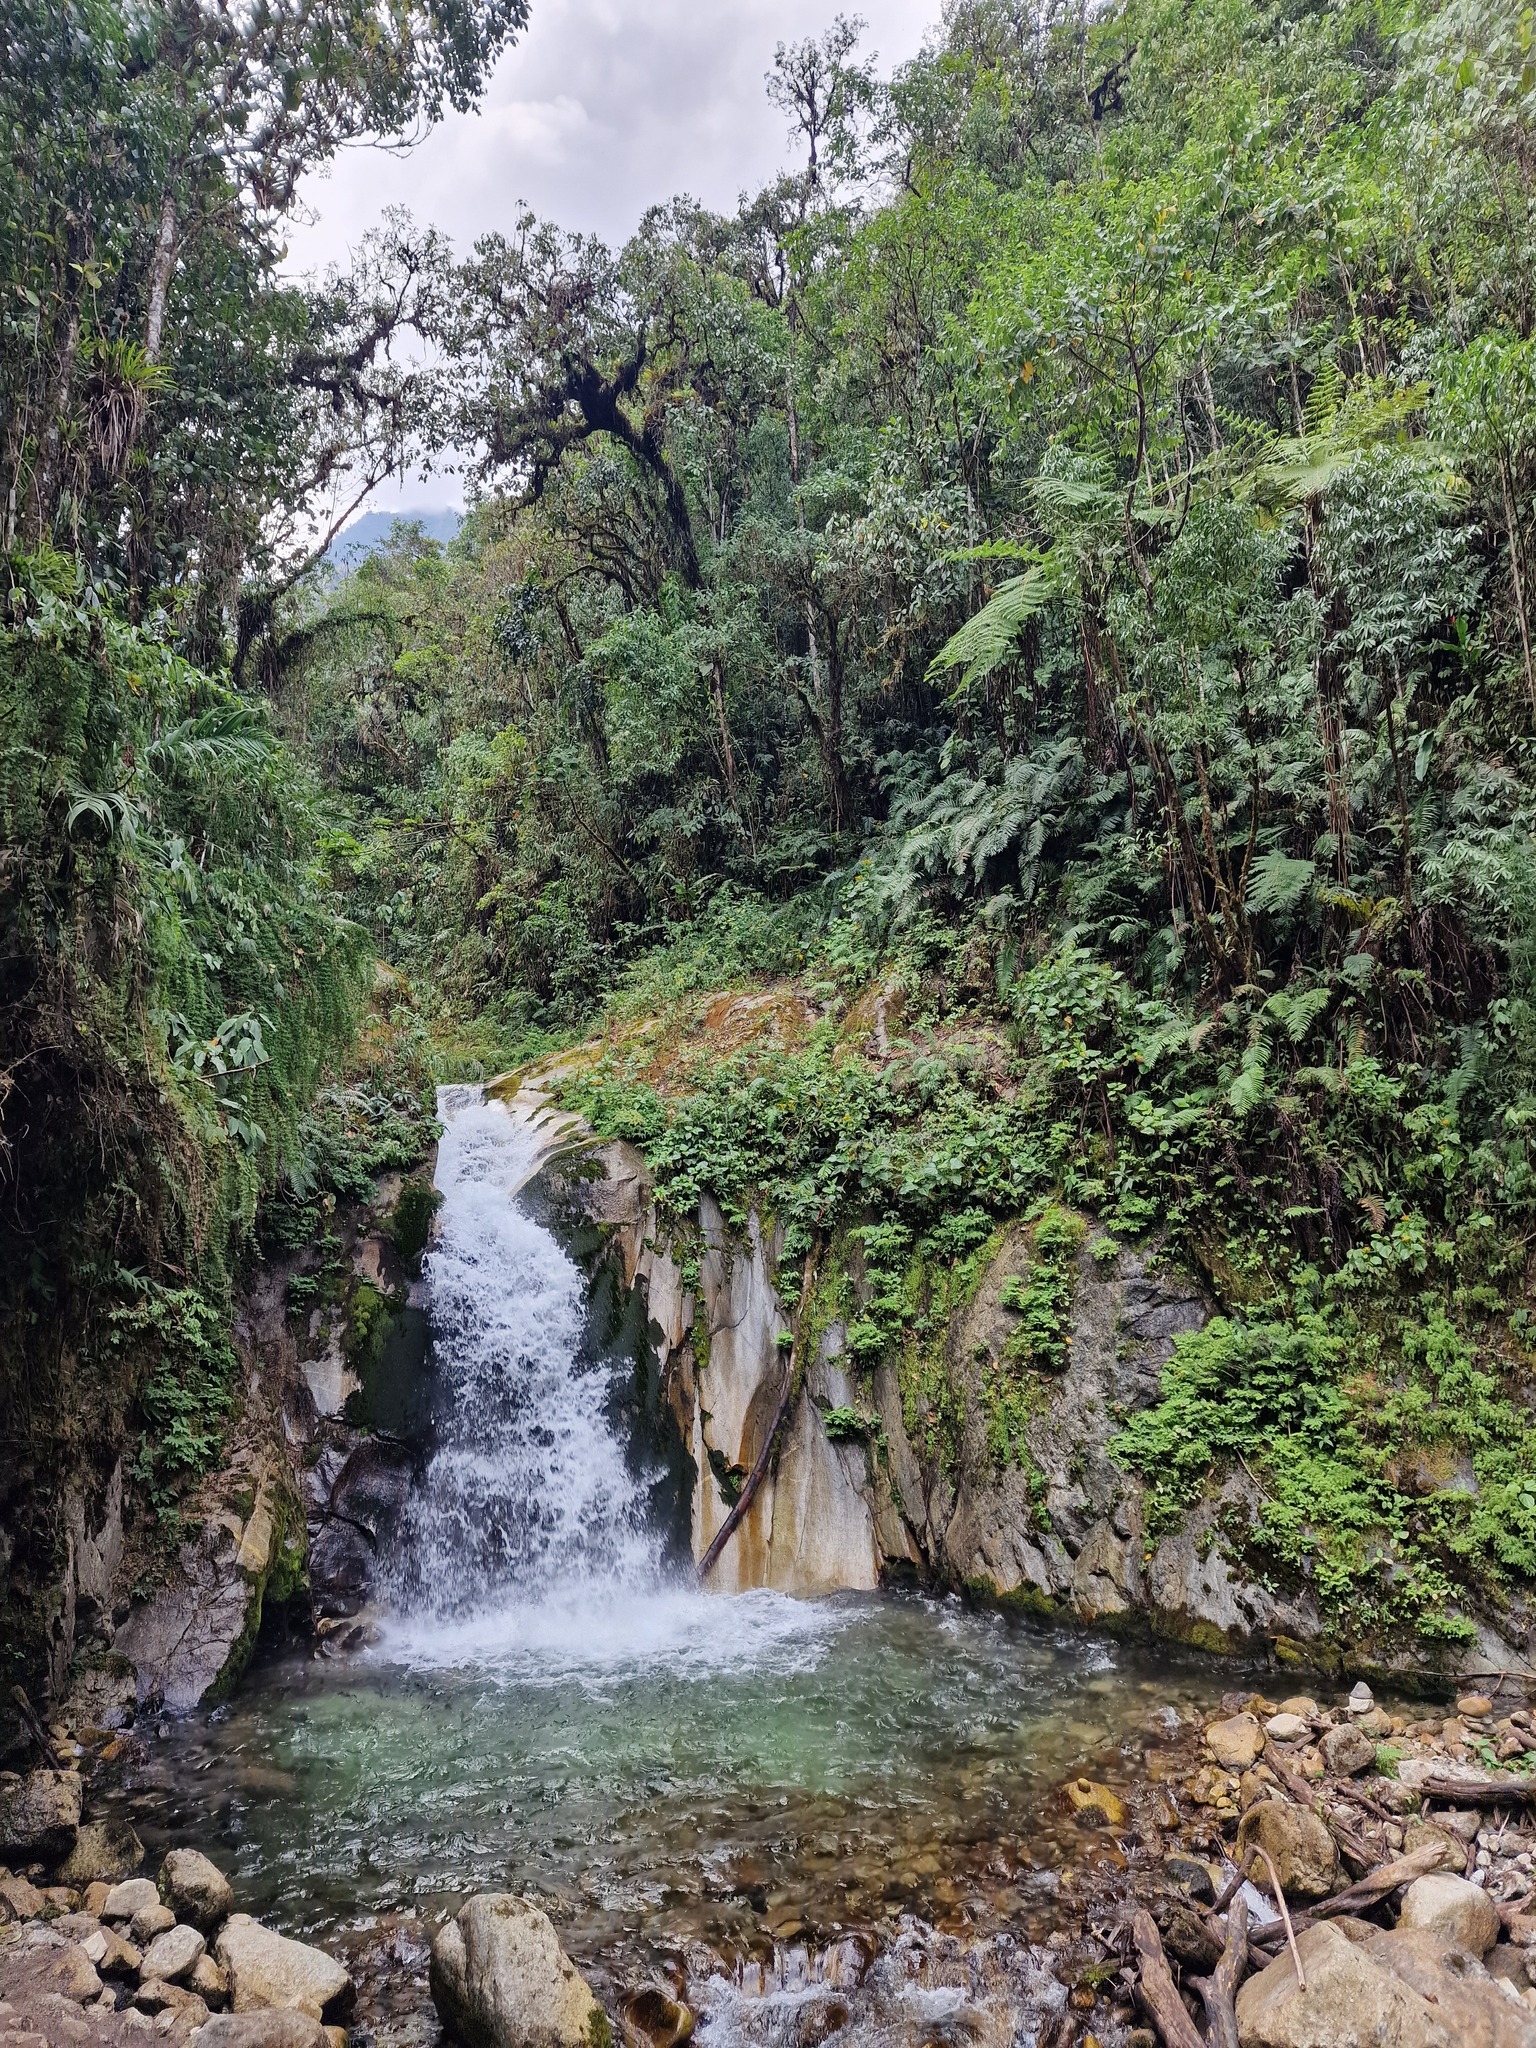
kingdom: Animalia
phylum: Chordata
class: Aves
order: Passeriformes
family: Cinclidae
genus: Cinclus
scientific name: Cinclus leucocephalus
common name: White-capped dipper
